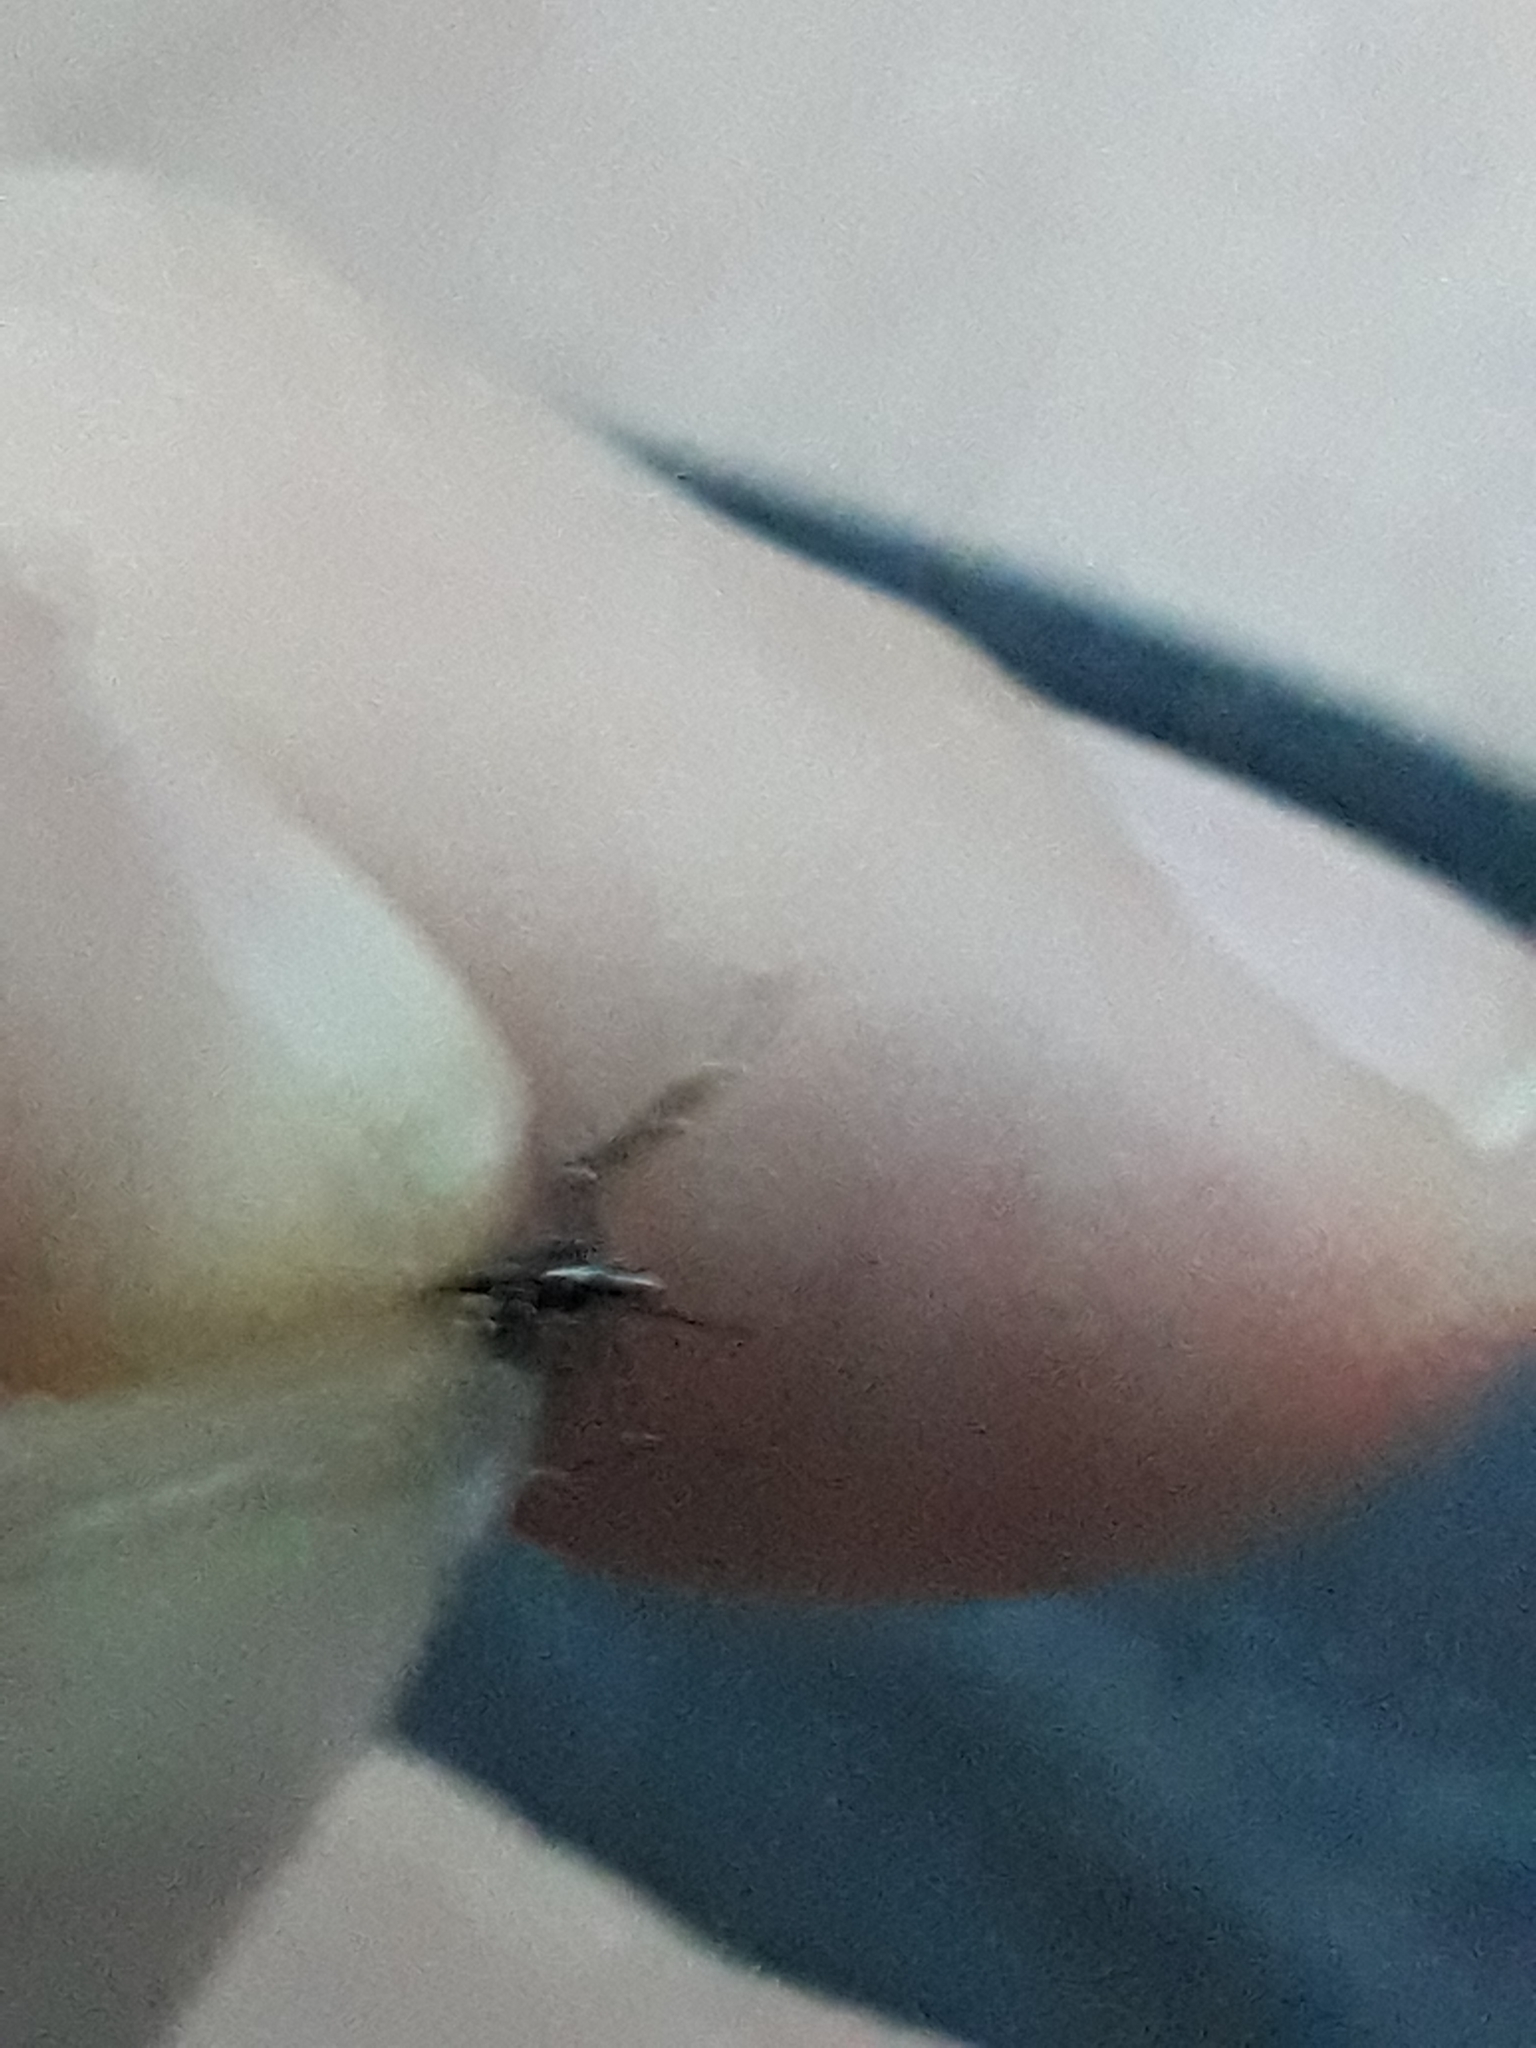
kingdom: Animalia
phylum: Arthropoda
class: Insecta
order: Diptera
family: Culicidae
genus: Aedes
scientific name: Aedes albopictus
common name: Tiger mosquito
